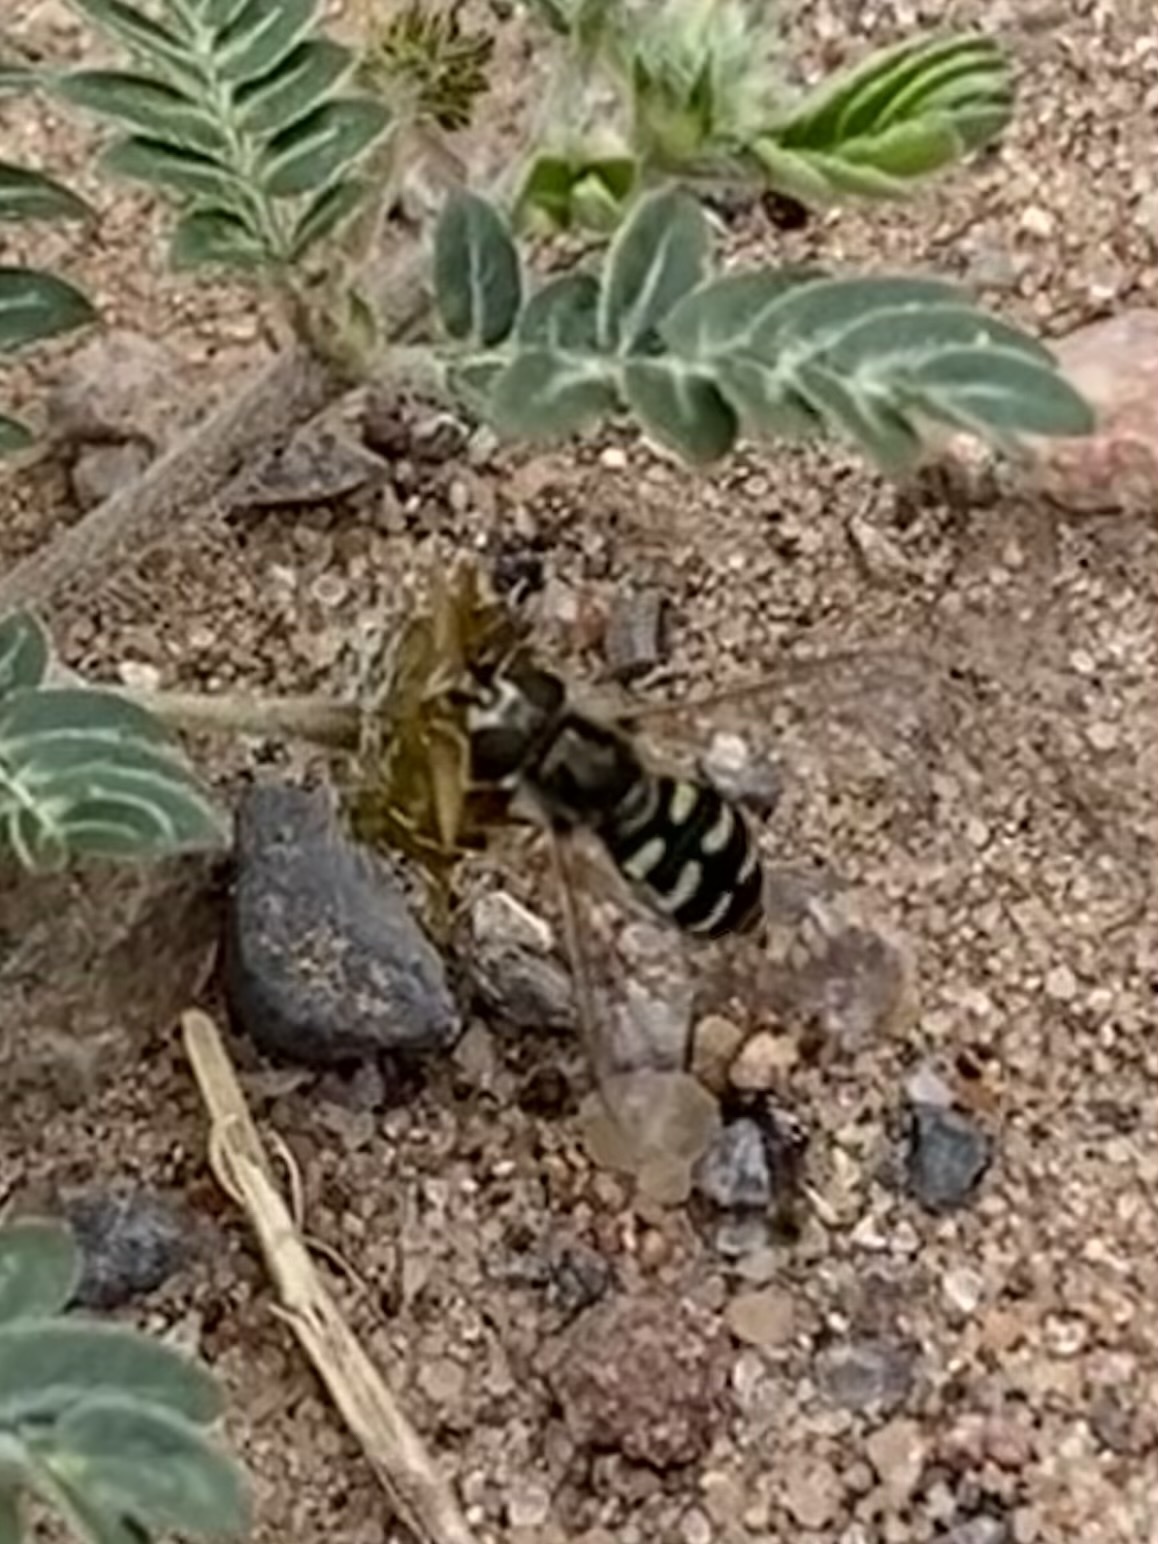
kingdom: Animalia
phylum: Arthropoda
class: Insecta
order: Diptera
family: Syrphidae
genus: Eupeodes
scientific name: Eupeodes volucris
